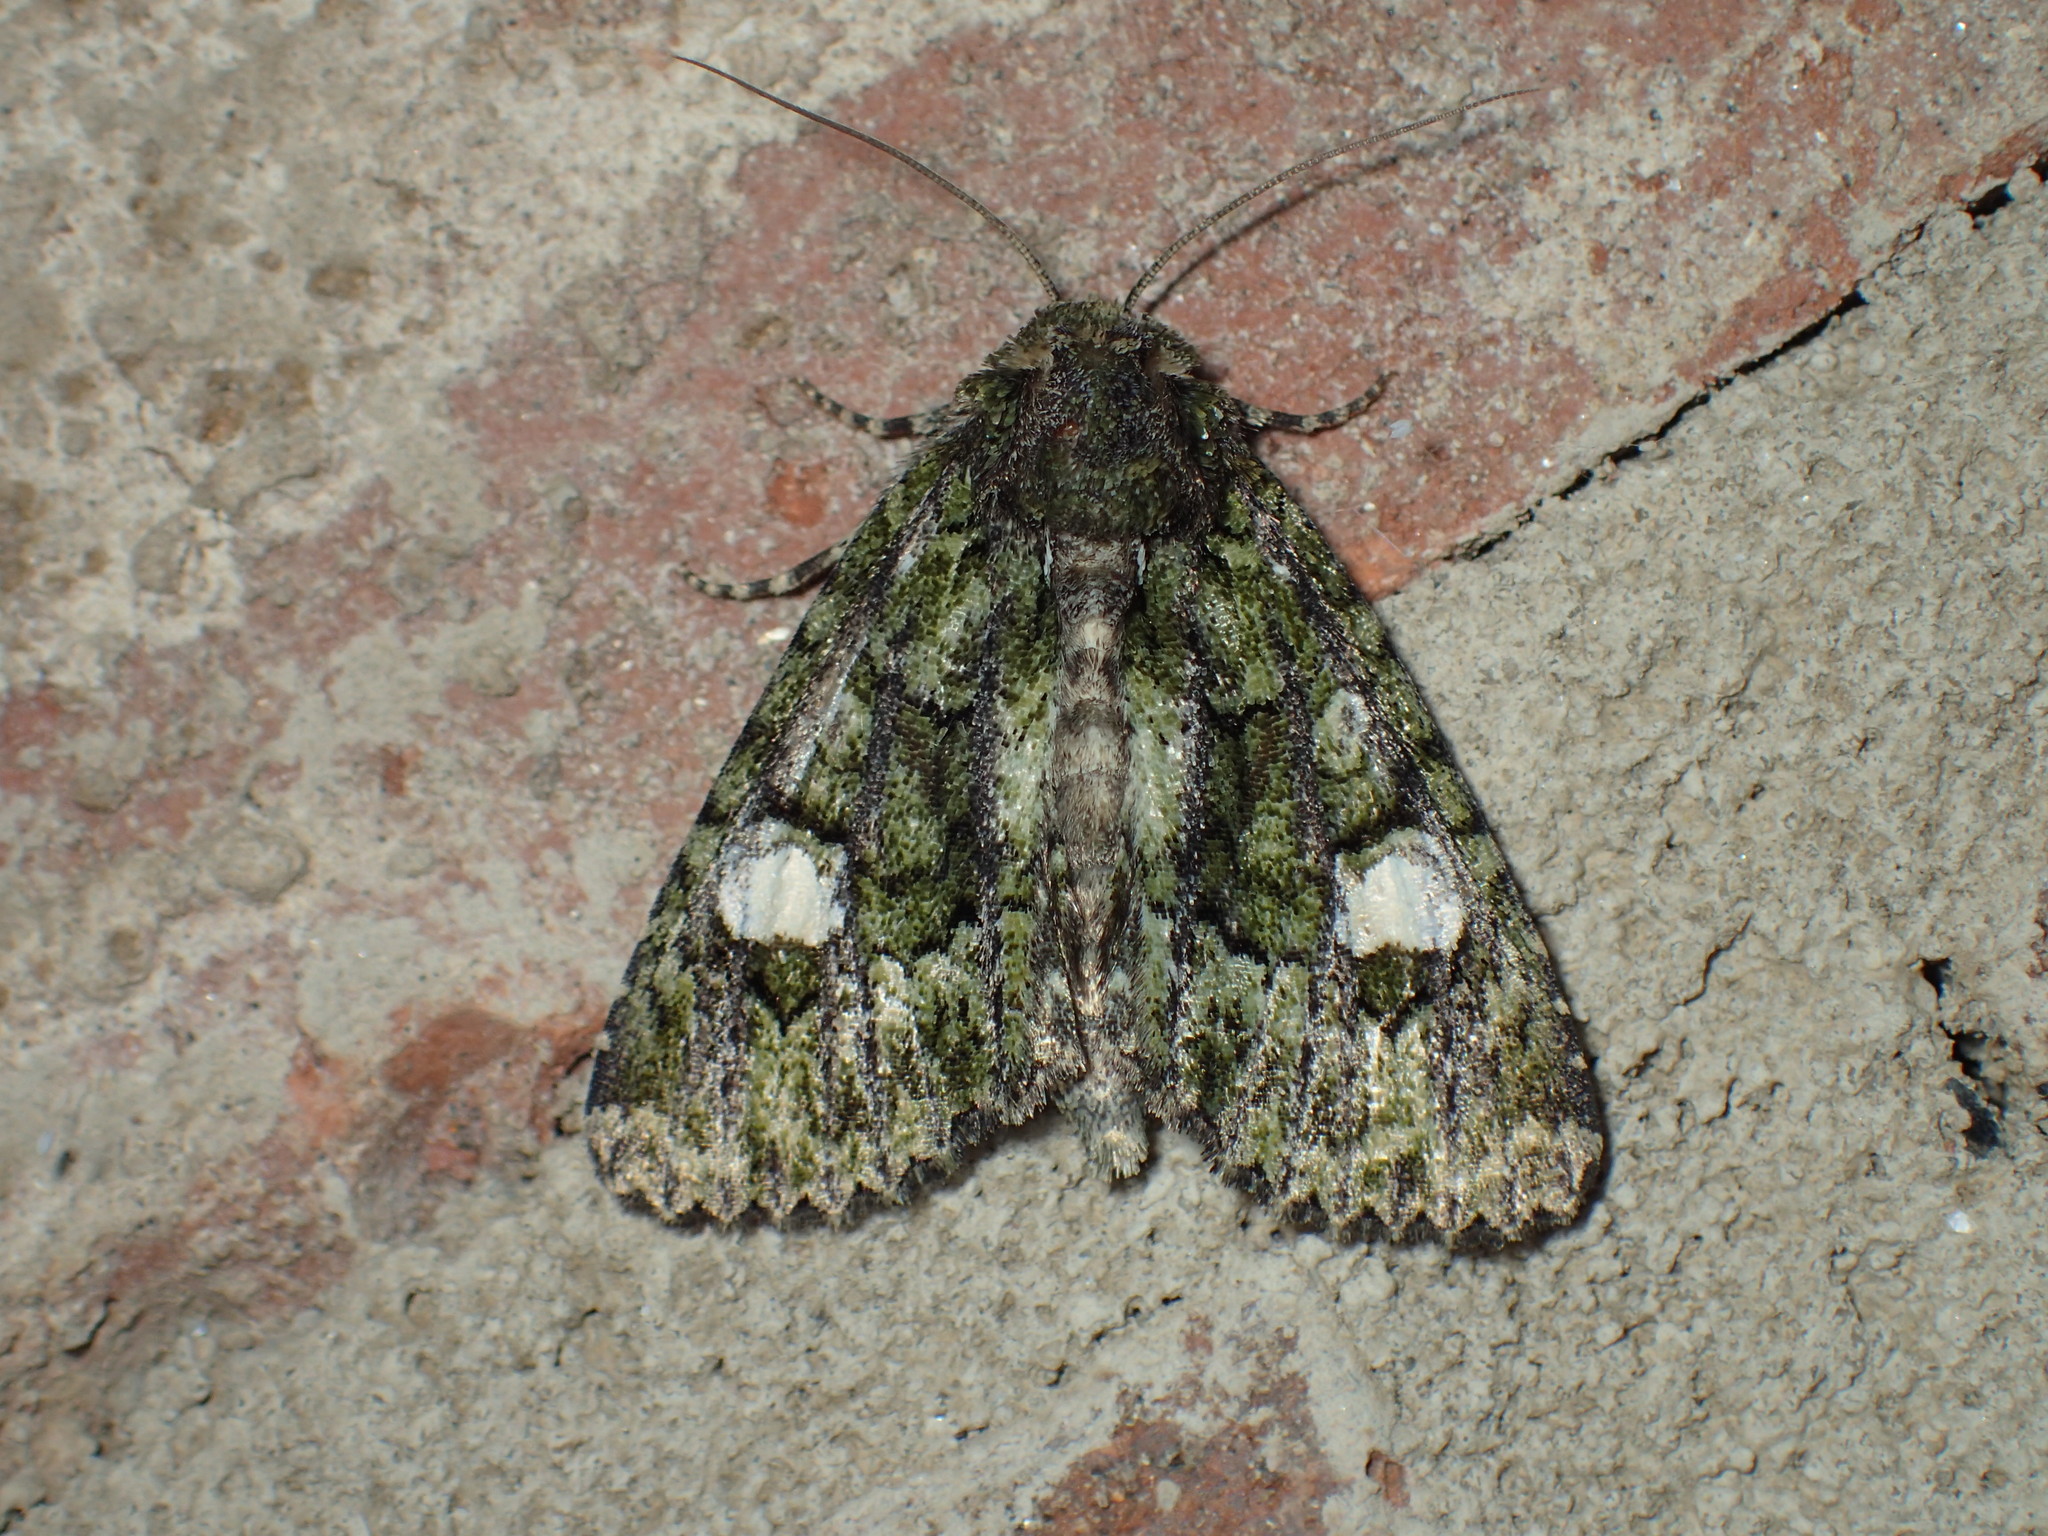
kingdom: Animalia
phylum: Arthropoda
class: Insecta
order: Lepidoptera
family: Noctuidae
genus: Phosphila
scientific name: Phosphila miselioides
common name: Spotted phosphila moth
